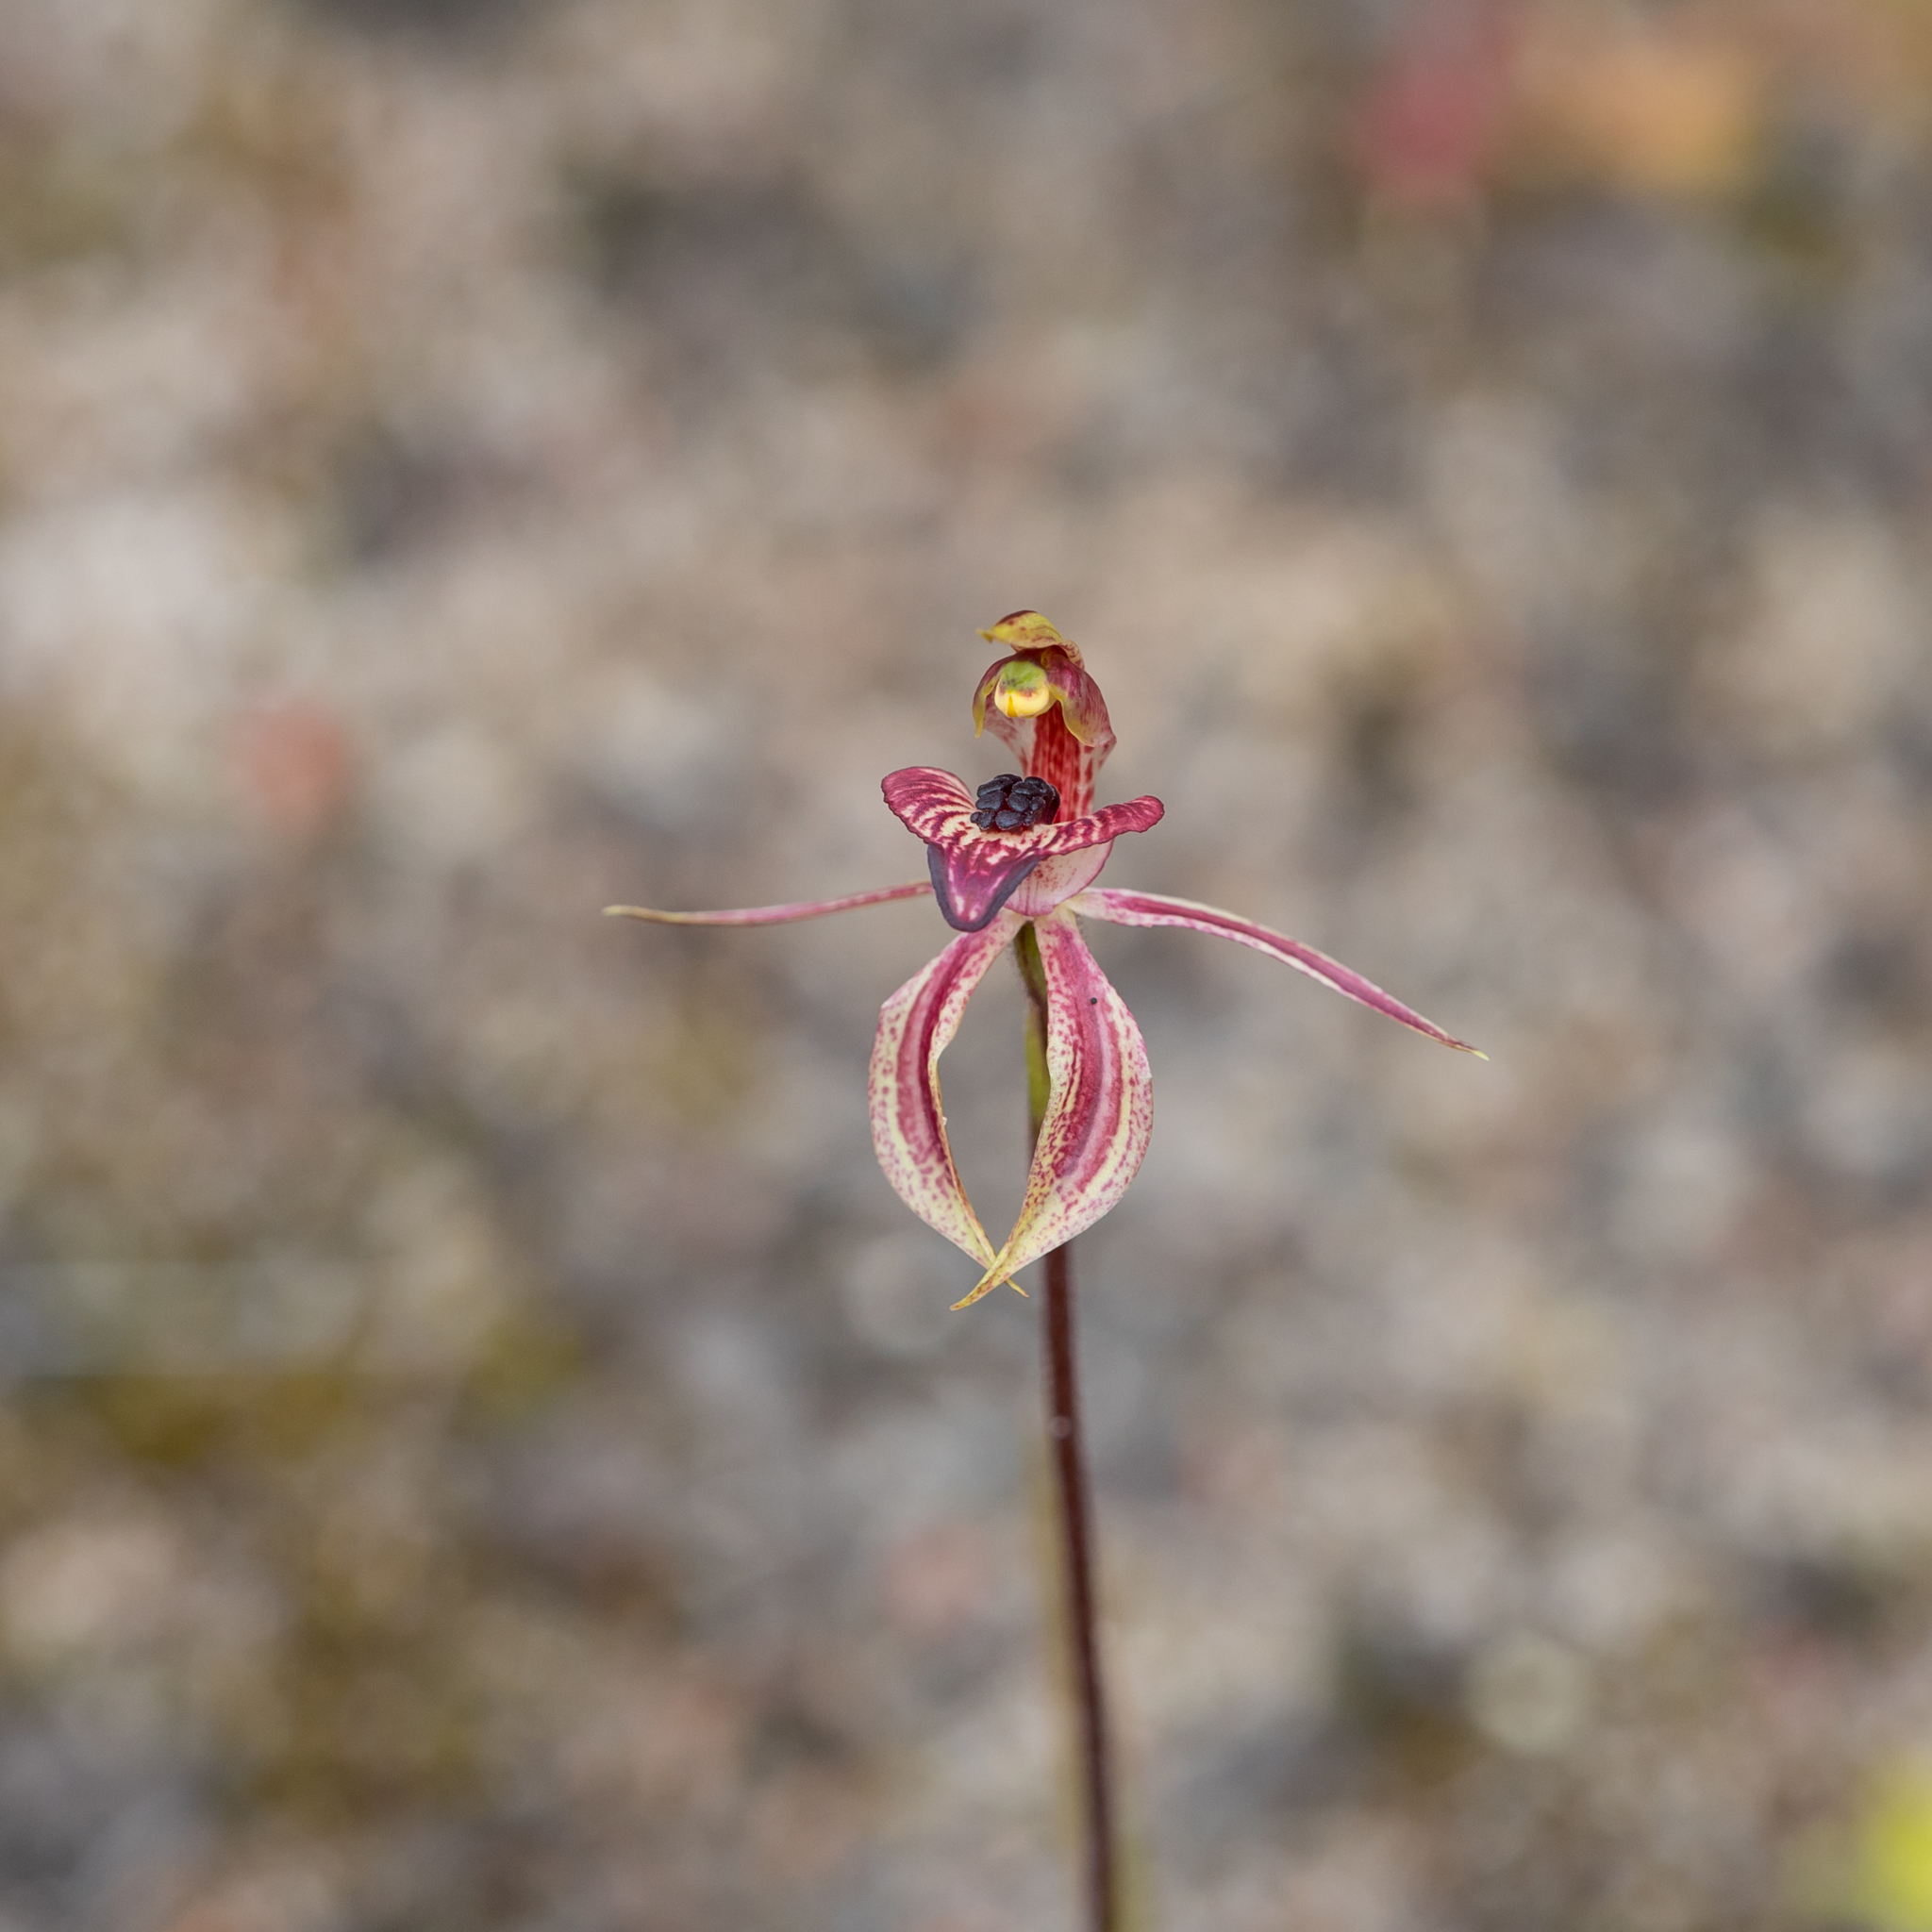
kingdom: Plantae
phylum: Tracheophyta
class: Liliopsida
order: Asparagales
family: Orchidaceae
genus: Caladenia
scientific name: Caladenia cardiochila
